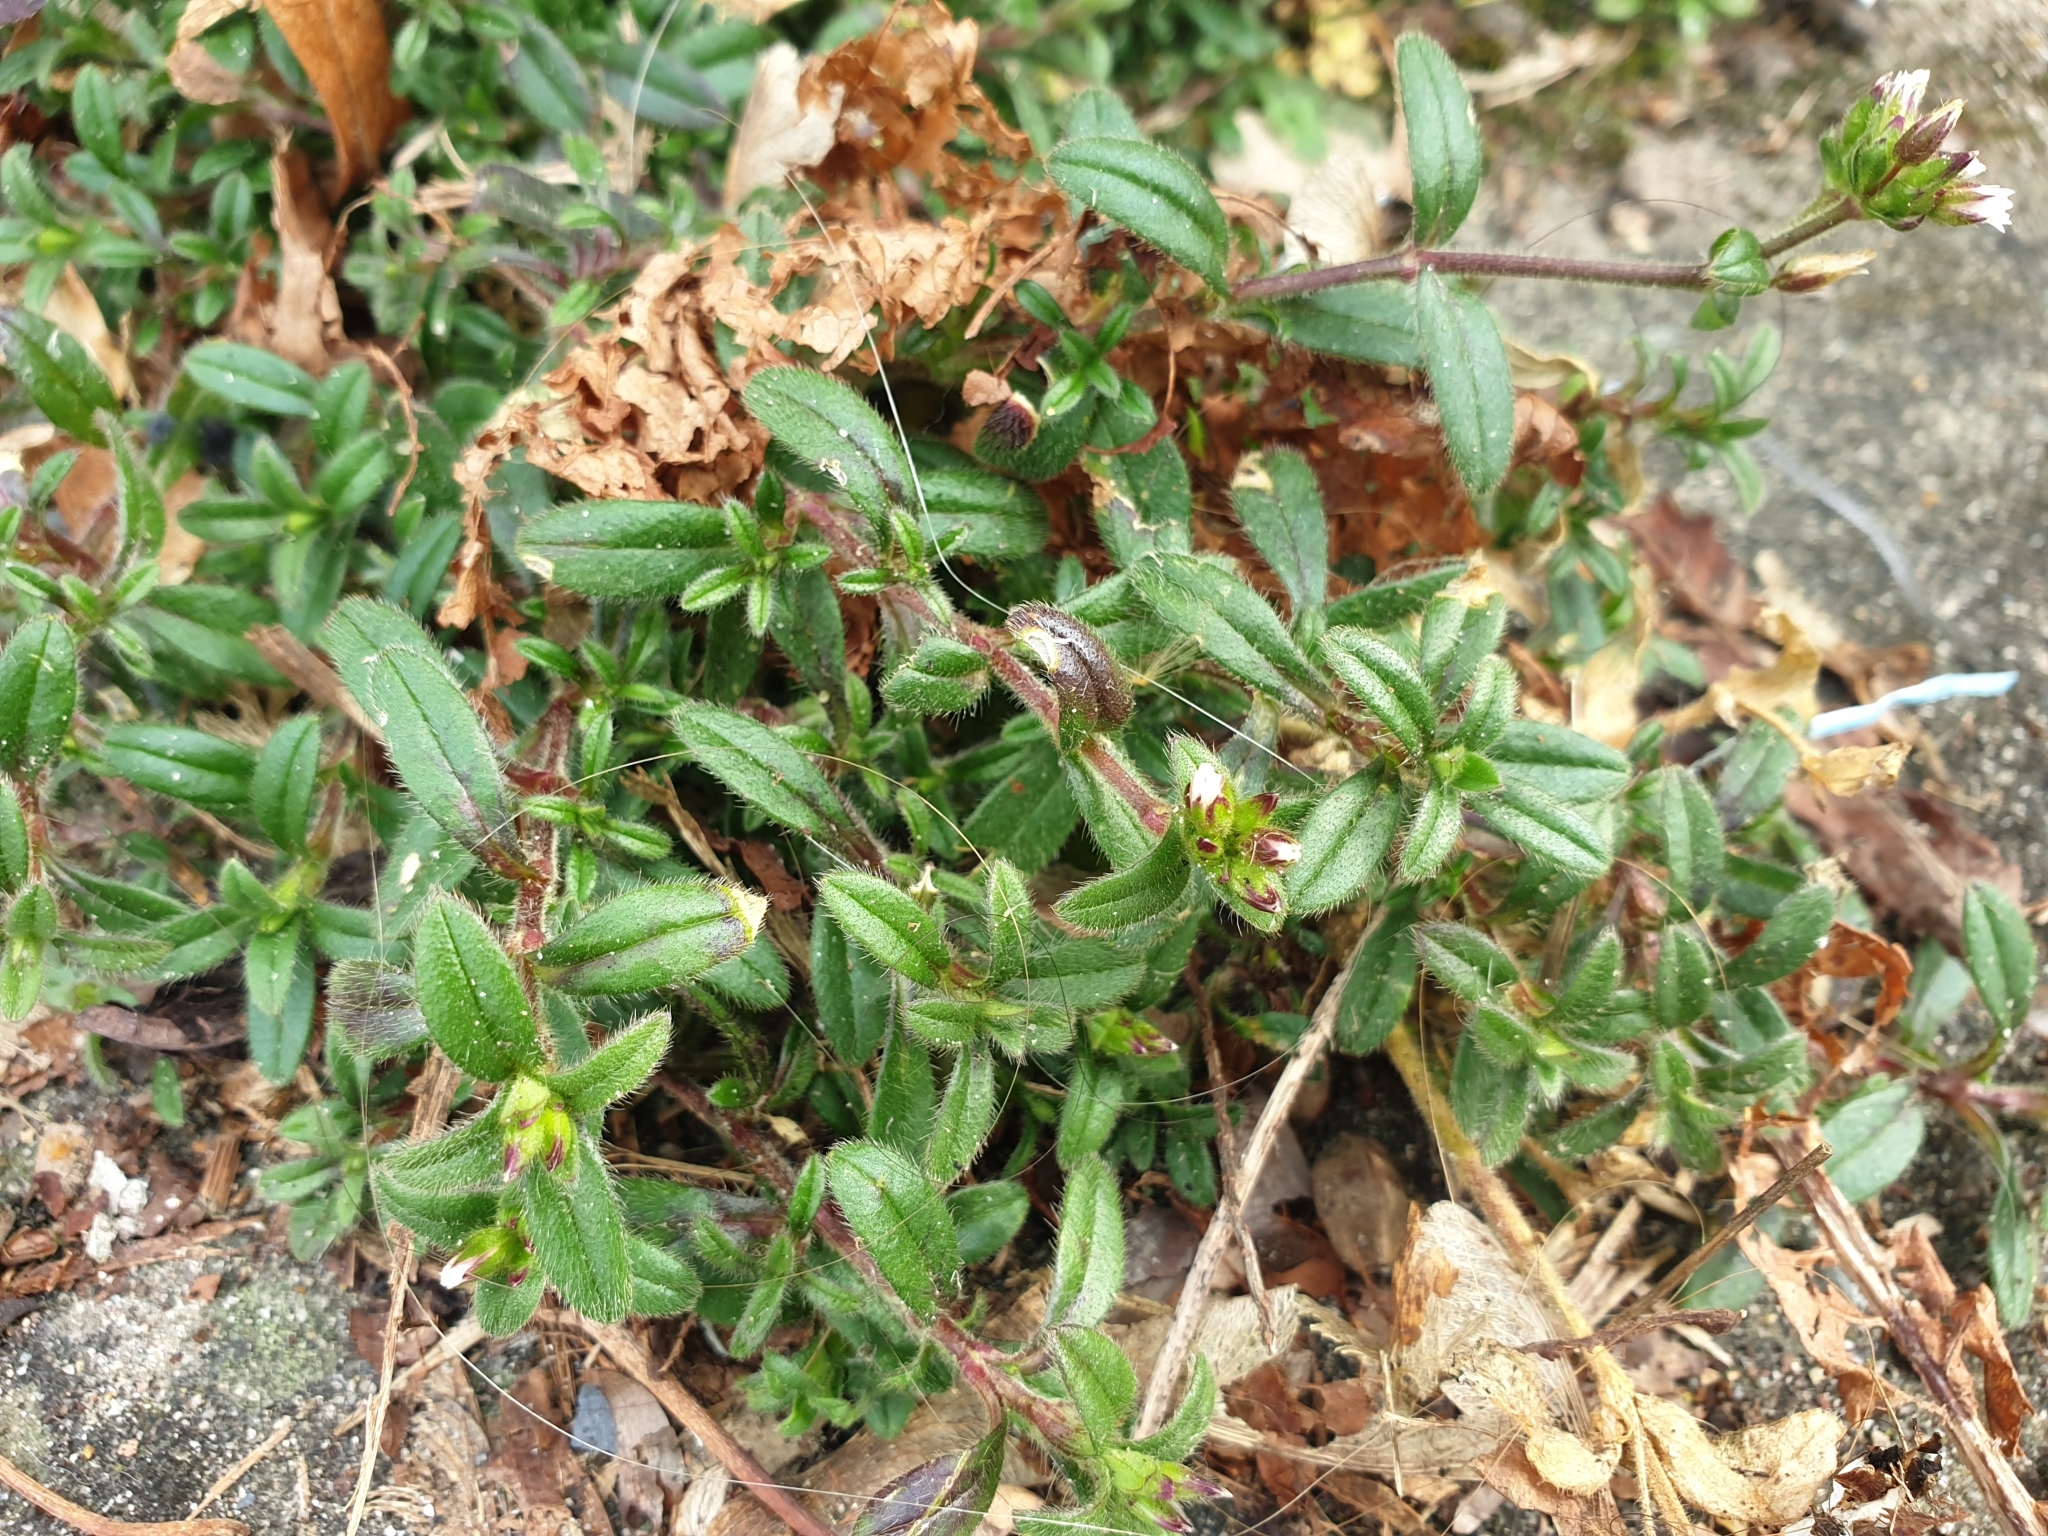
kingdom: Plantae
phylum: Tracheophyta
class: Magnoliopsida
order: Caryophyllales
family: Caryophyllaceae
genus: Cerastium
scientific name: Cerastium holosteoides
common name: Big chickweed
